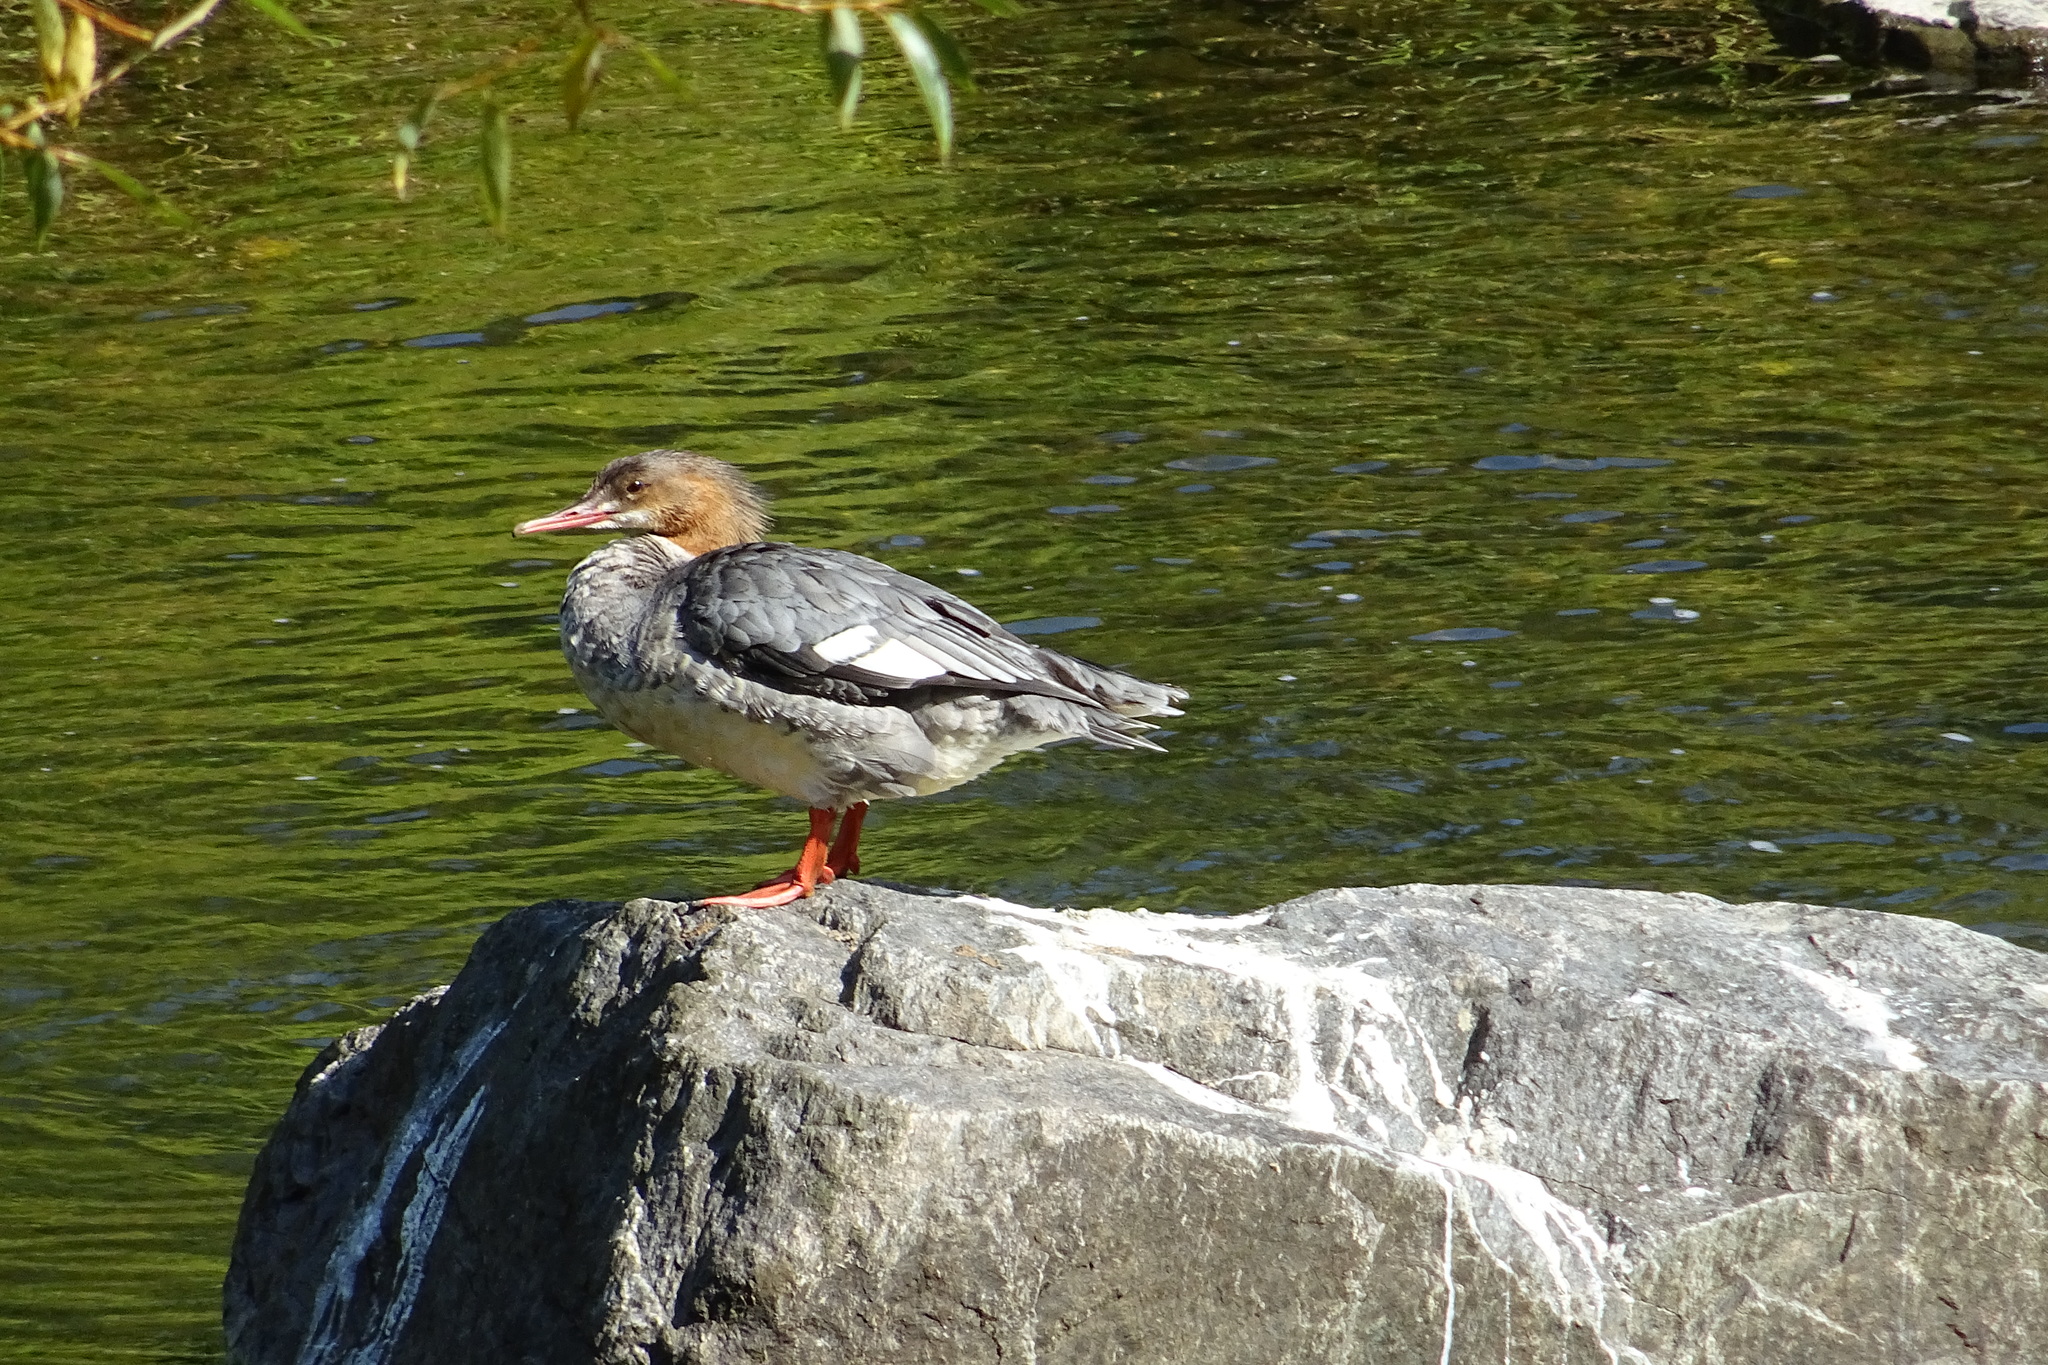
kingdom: Animalia
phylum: Chordata
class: Aves
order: Anseriformes
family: Anatidae
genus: Mergus
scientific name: Mergus merganser
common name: Common merganser
